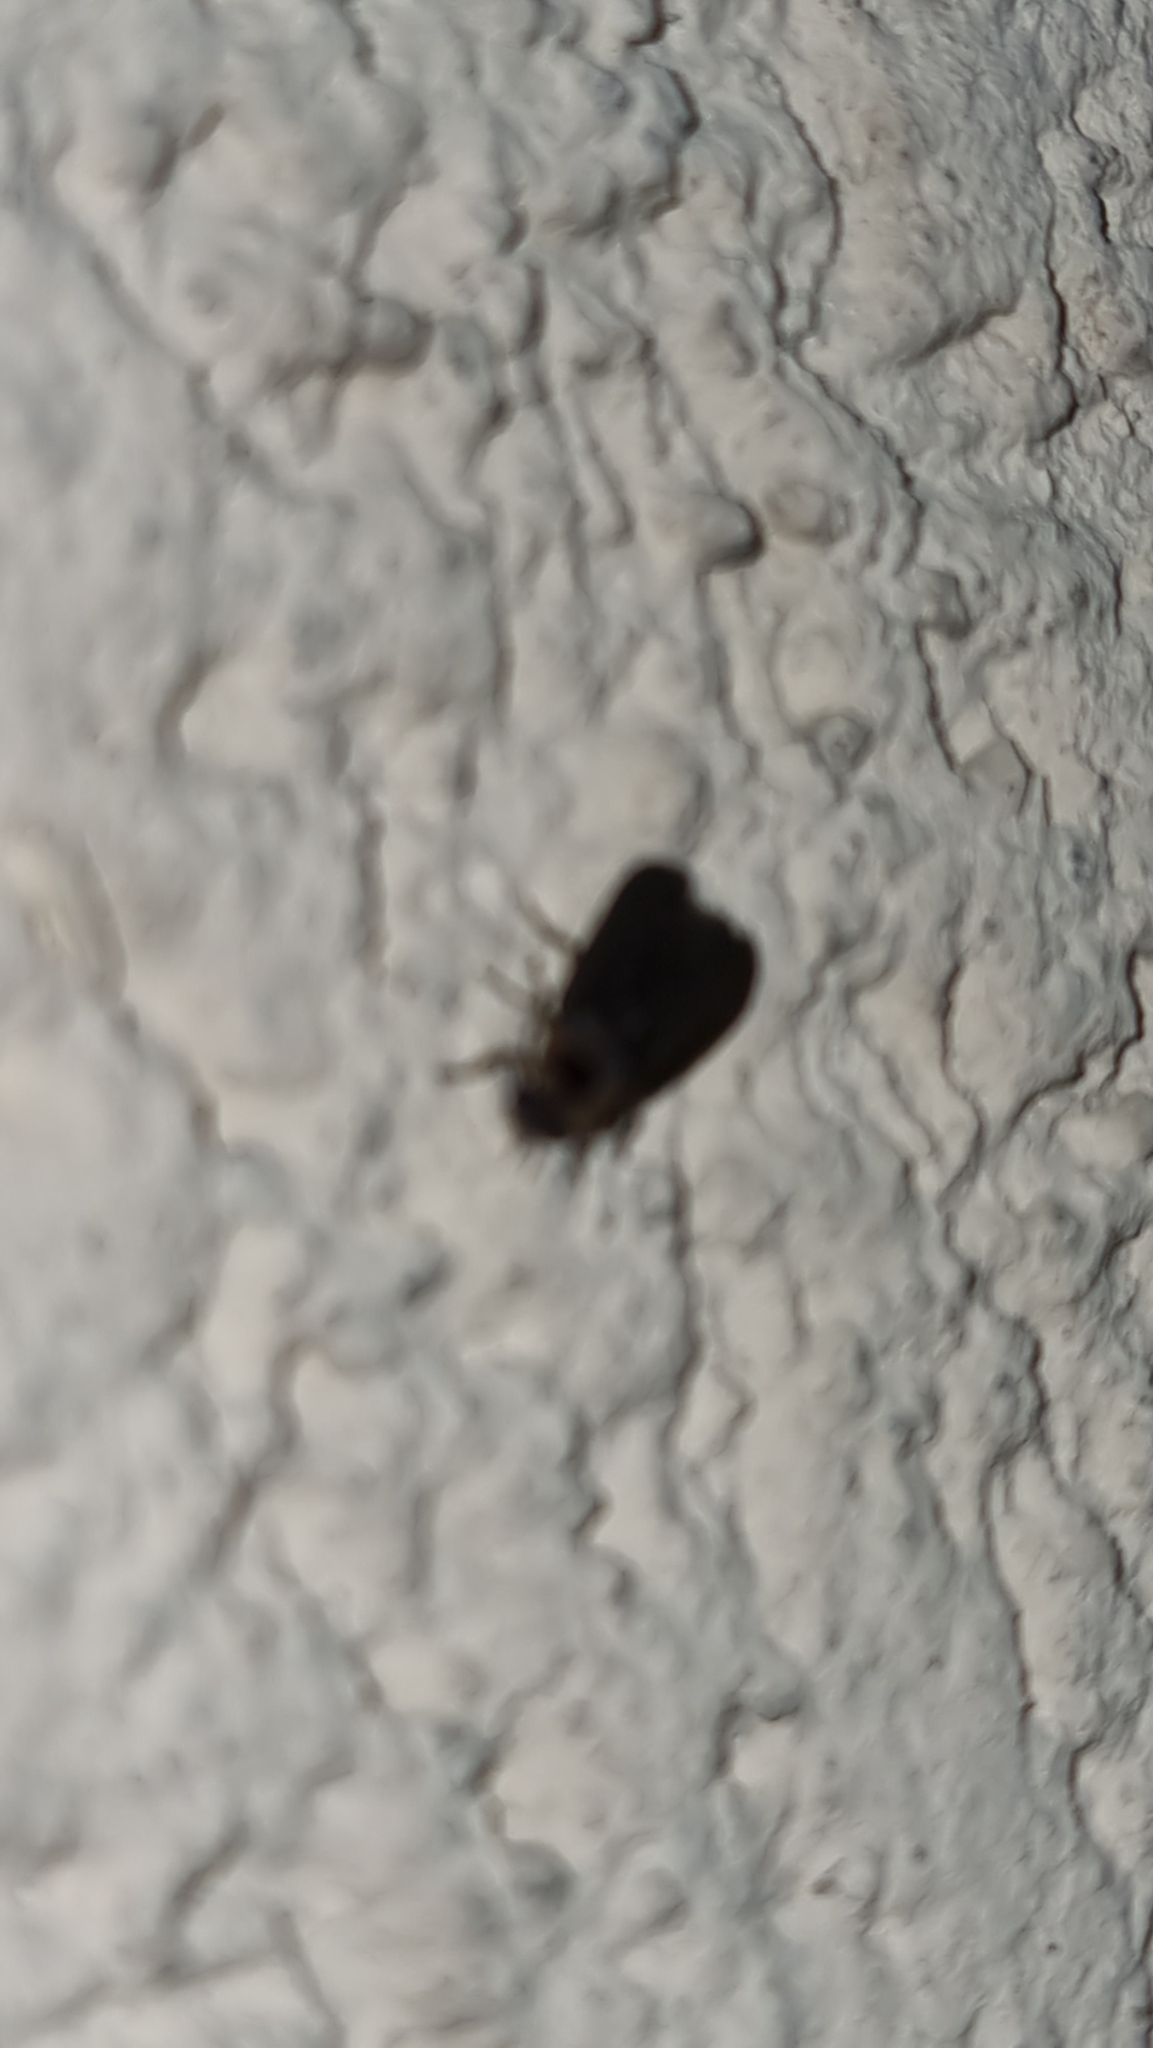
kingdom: Animalia
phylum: Arthropoda
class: Insecta
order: Coleoptera
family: Lampyridae
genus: Lampyris
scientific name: Lampyris noctiluca
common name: Glow-worm
